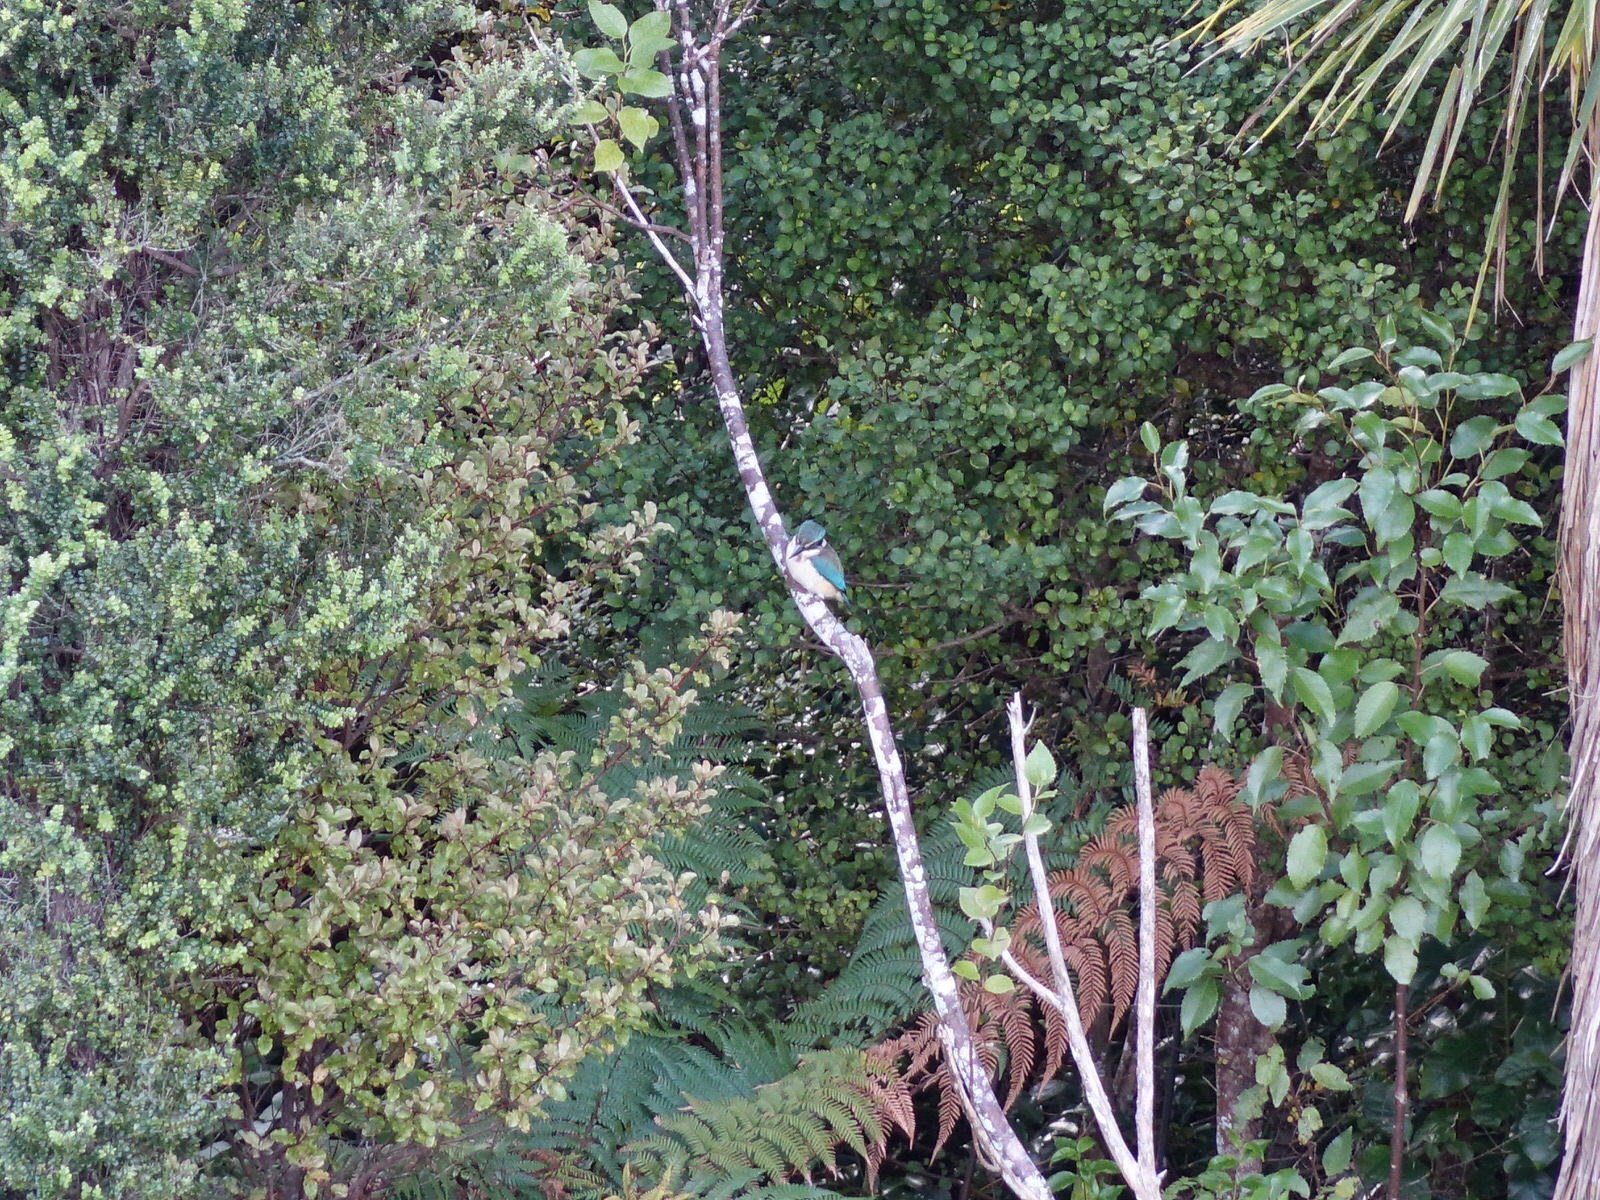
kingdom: Animalia
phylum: Chordata
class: Aves
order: Coraciiformes
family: Alcedinidae
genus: Todiramphus
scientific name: Todiramphus sanctus
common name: Sacred kingfisher
